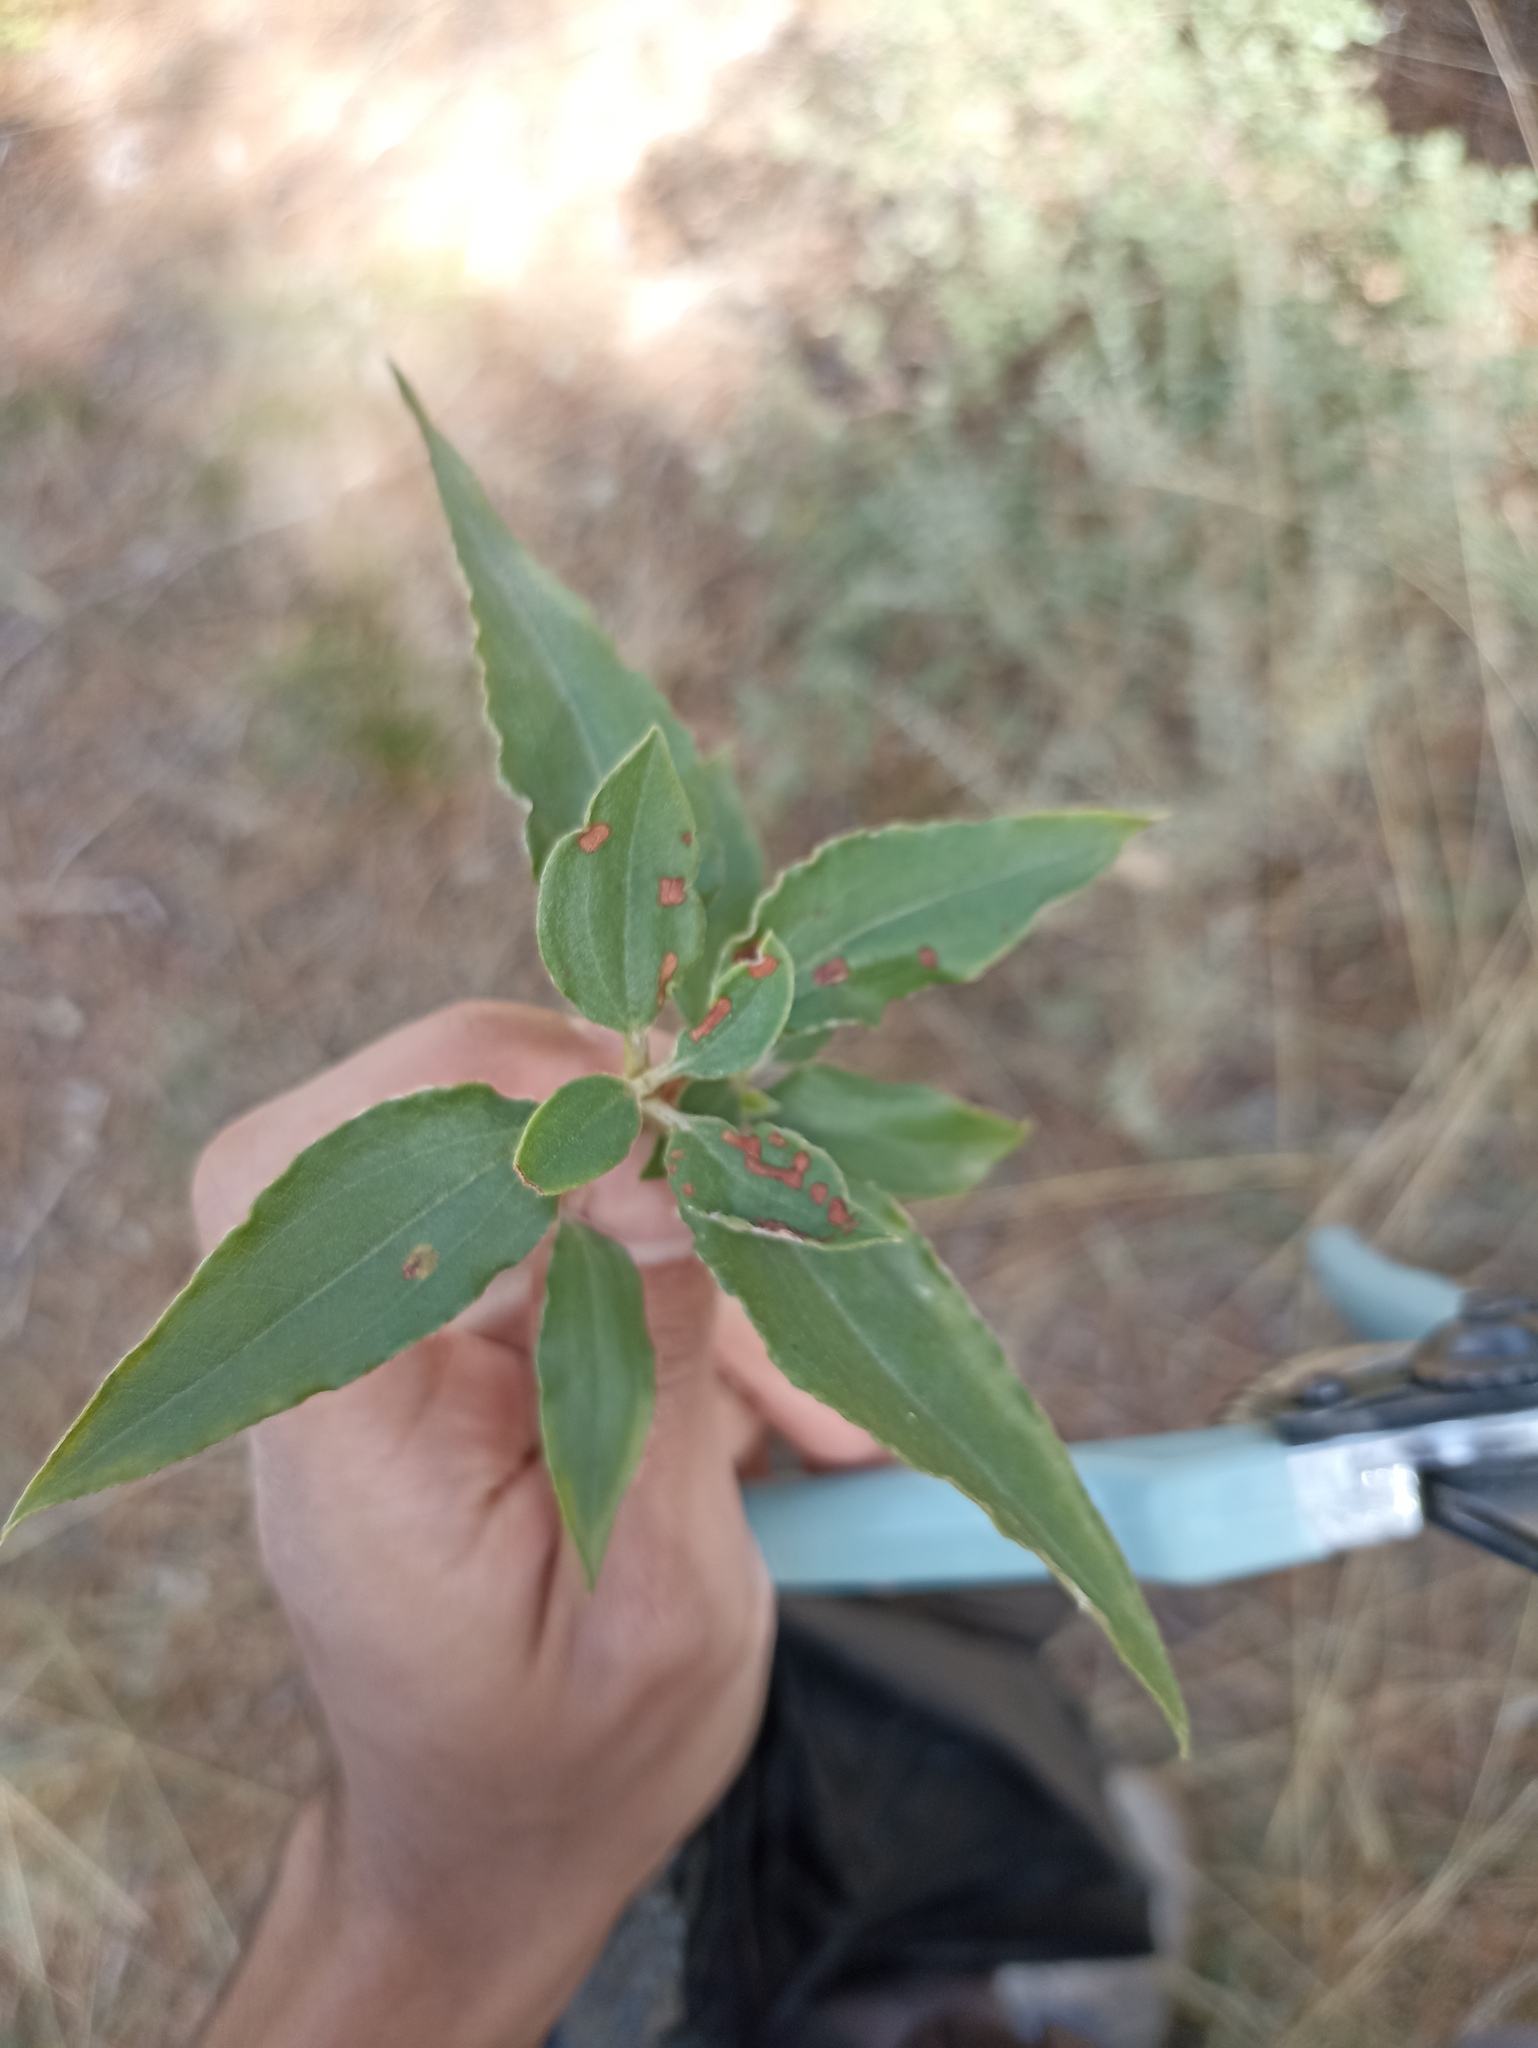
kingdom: Plantae
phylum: Tracheophyta
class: Magnoliopsida
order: Malvales
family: Cistaceae
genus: Cistus
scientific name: Cistus laurifolius
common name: Laurel-leaved cistus
